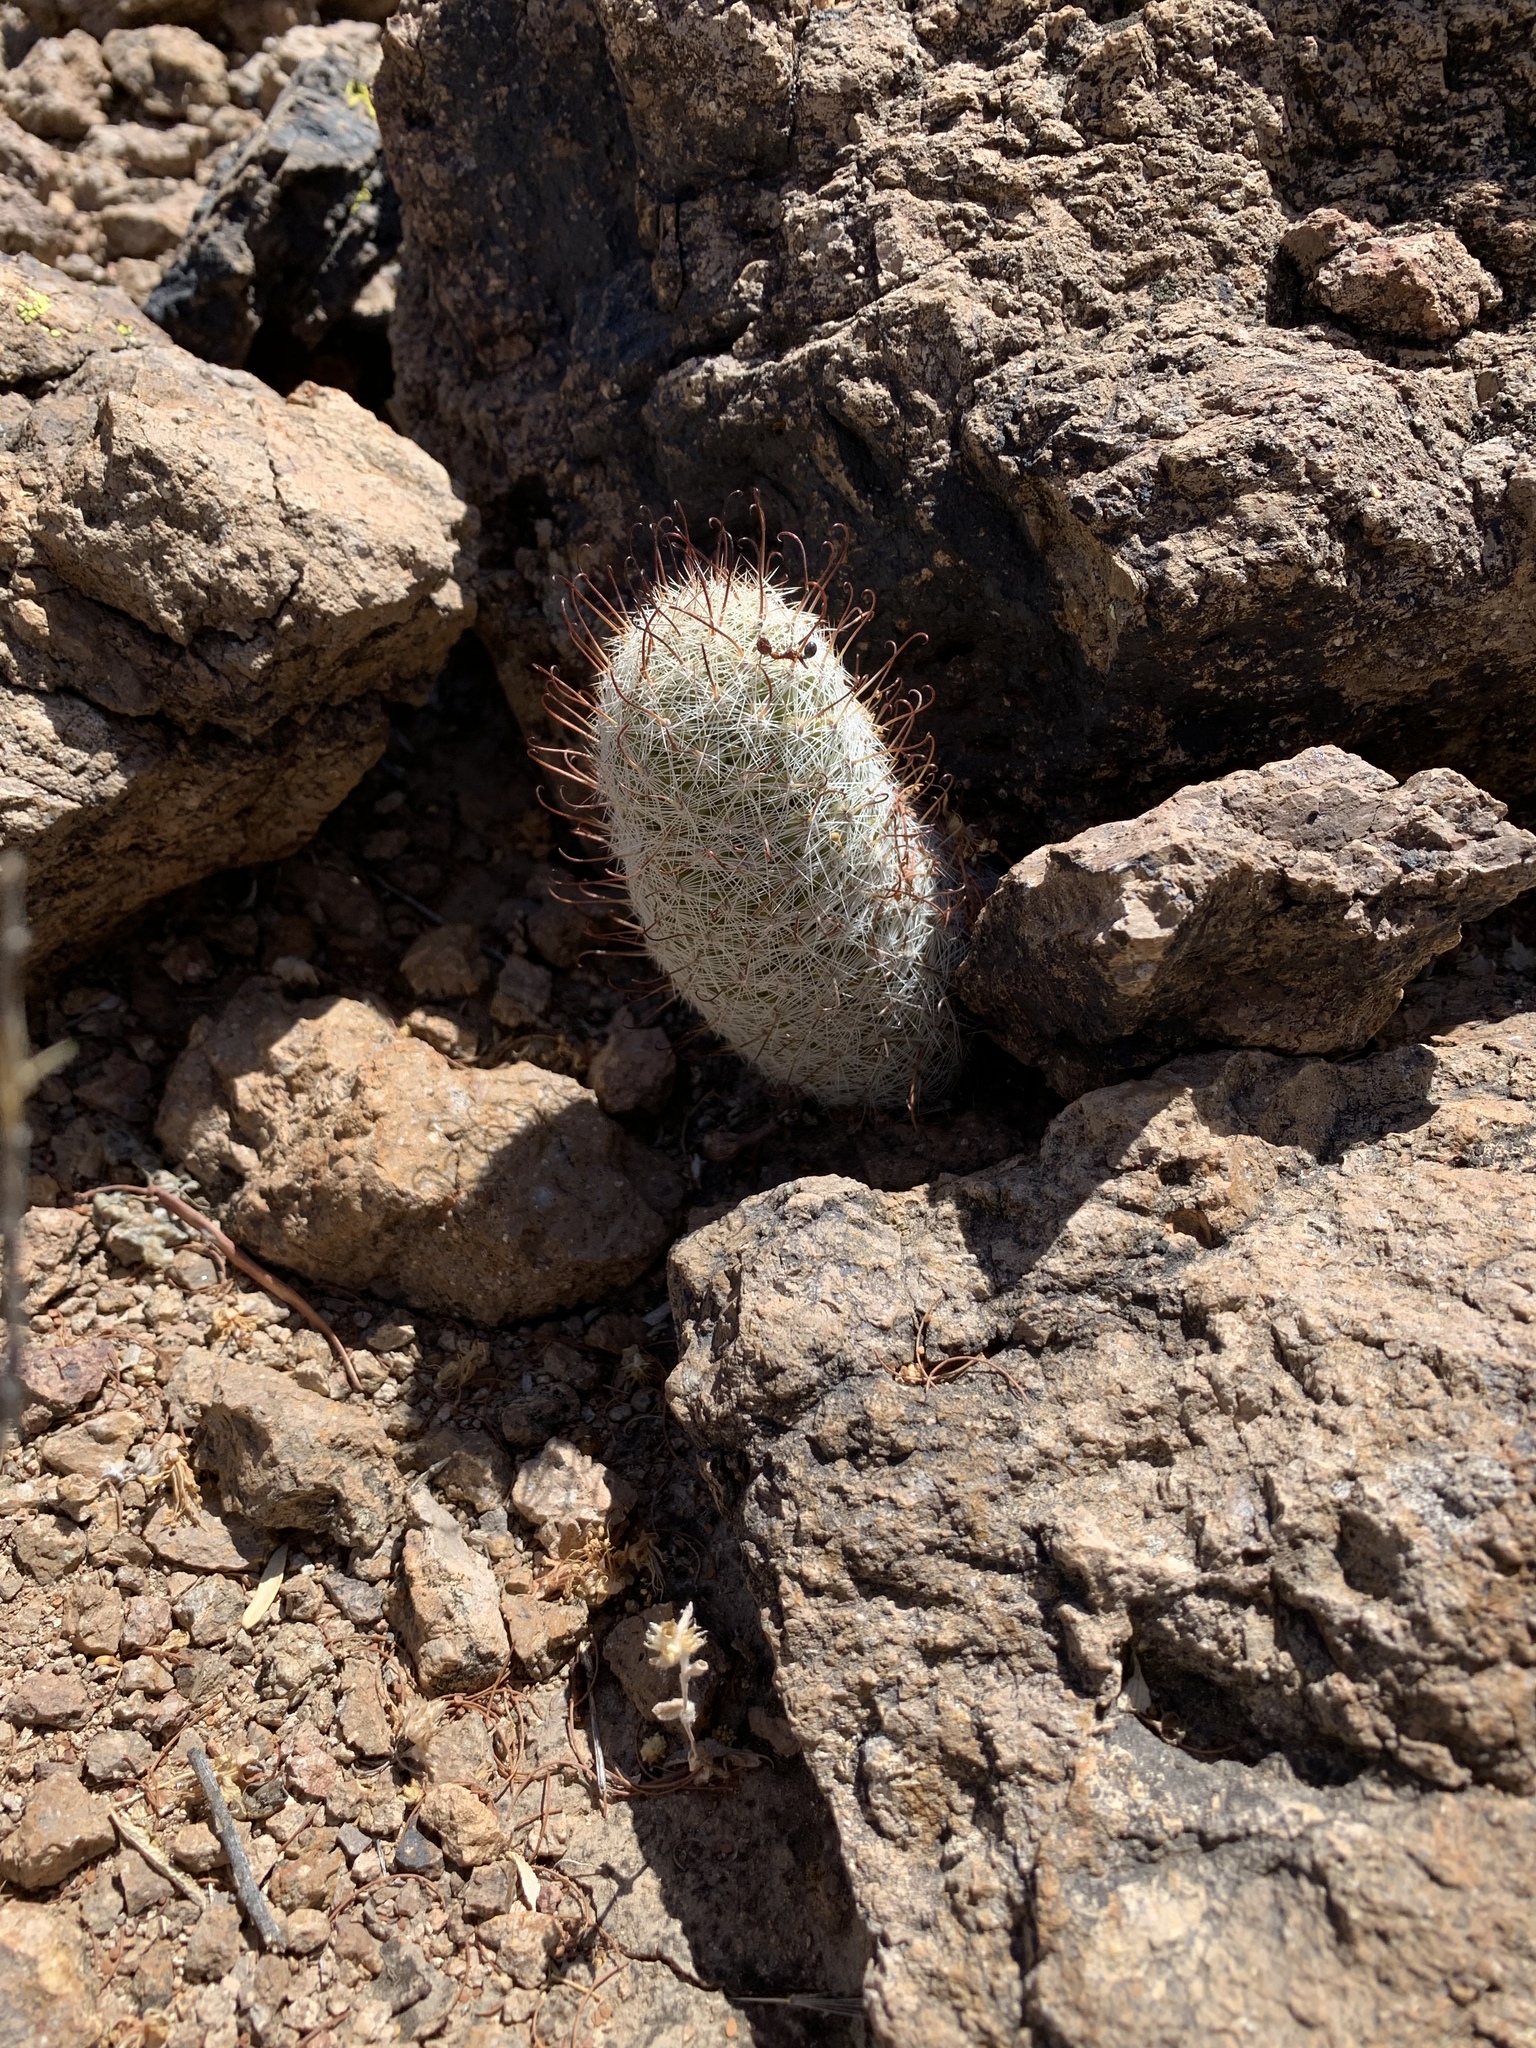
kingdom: Plantae
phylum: Tracheophyta
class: Magnoliopsida
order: Caryophyllales
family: Cactaceae
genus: Cochemiea
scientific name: Cochemiea grahamii
